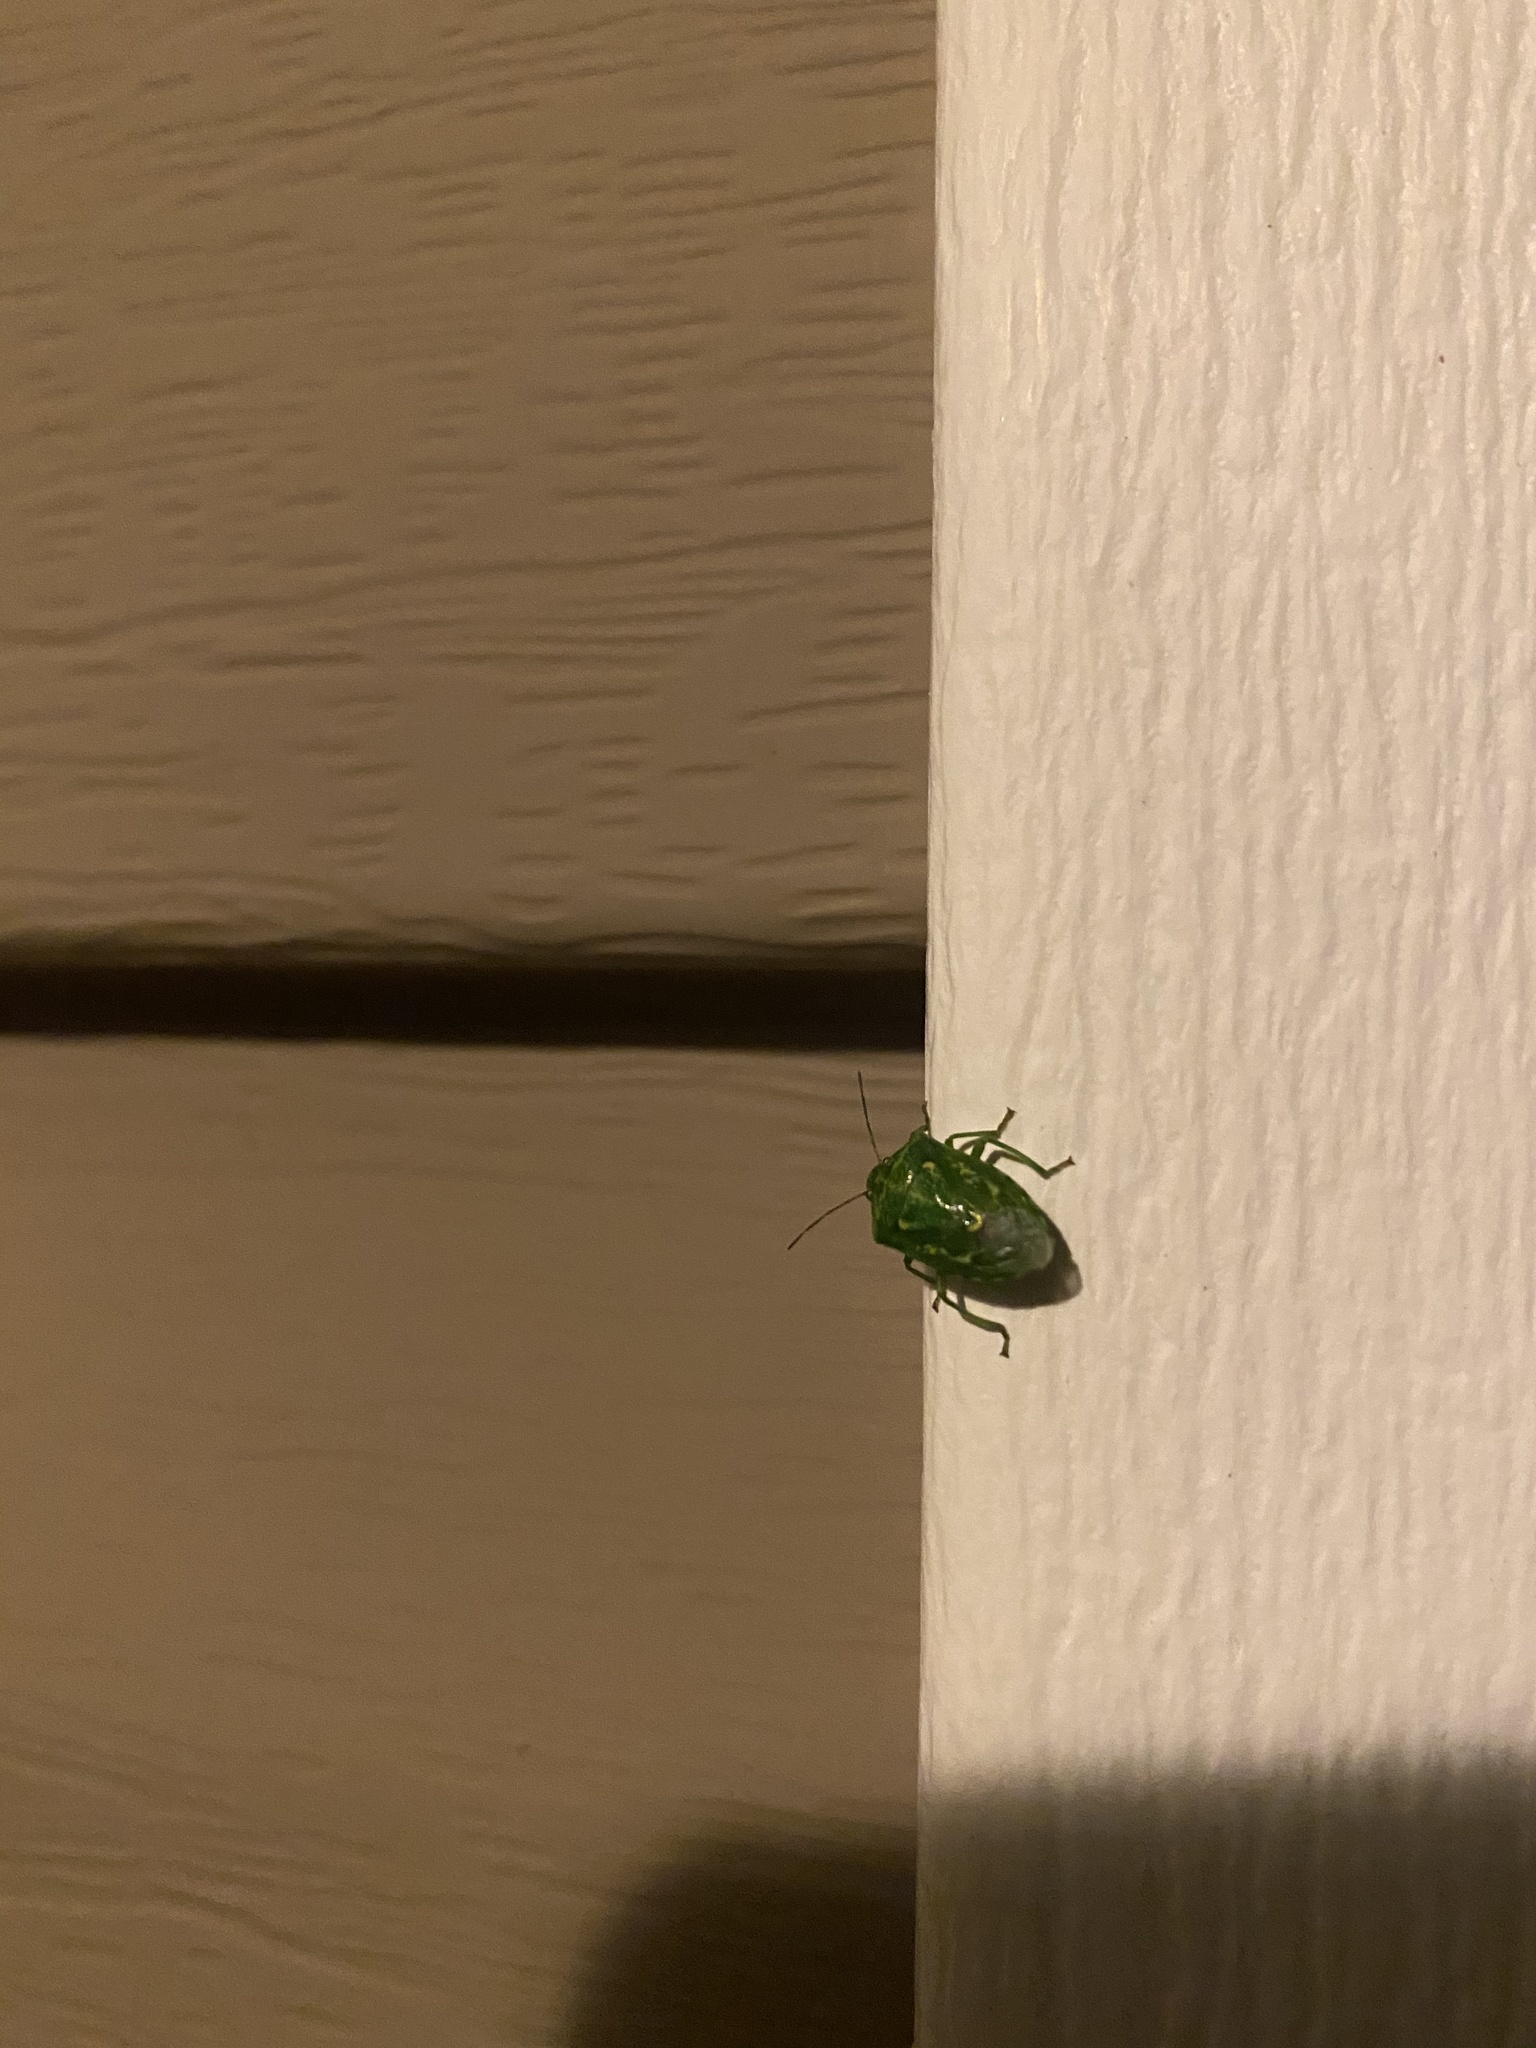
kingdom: Animalia
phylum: Arthropoda
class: Insecta
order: Hemiptera
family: Pentatomidae
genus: Banasa
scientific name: Banasa euchlora
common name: Cedar berry bug
